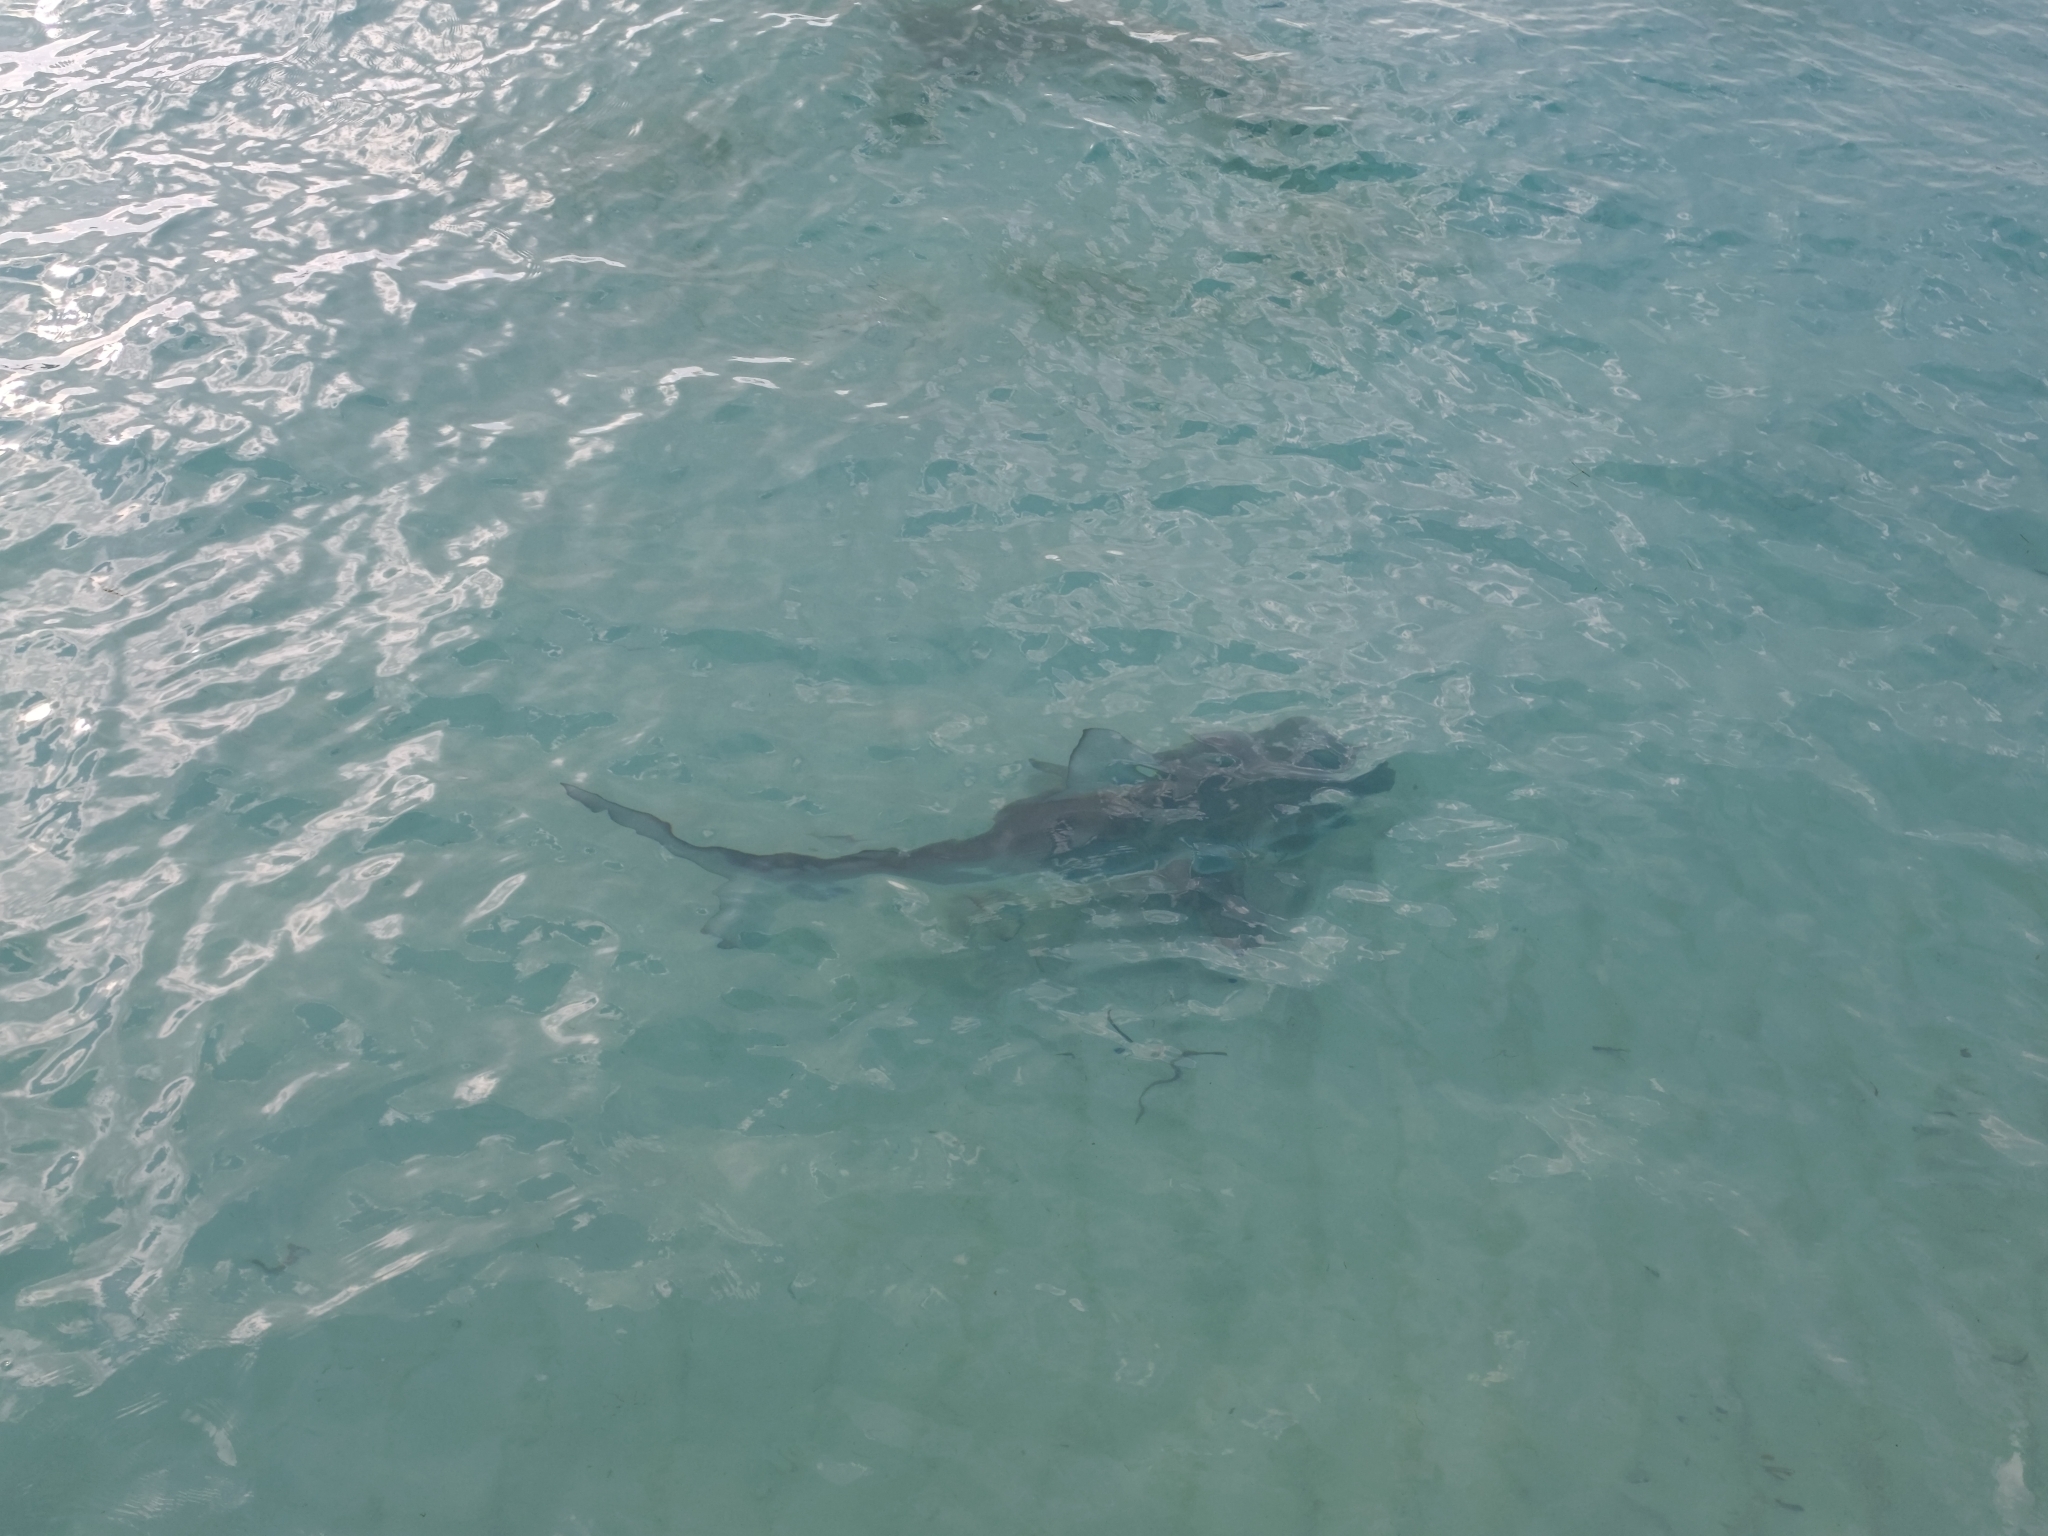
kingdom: Animalia
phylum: Chordata
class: Elasmobranchii
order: Carcharhiniformes
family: Carcharhinidae
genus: Carcharhinus
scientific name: Carcharhinus perezii
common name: Reef shark
